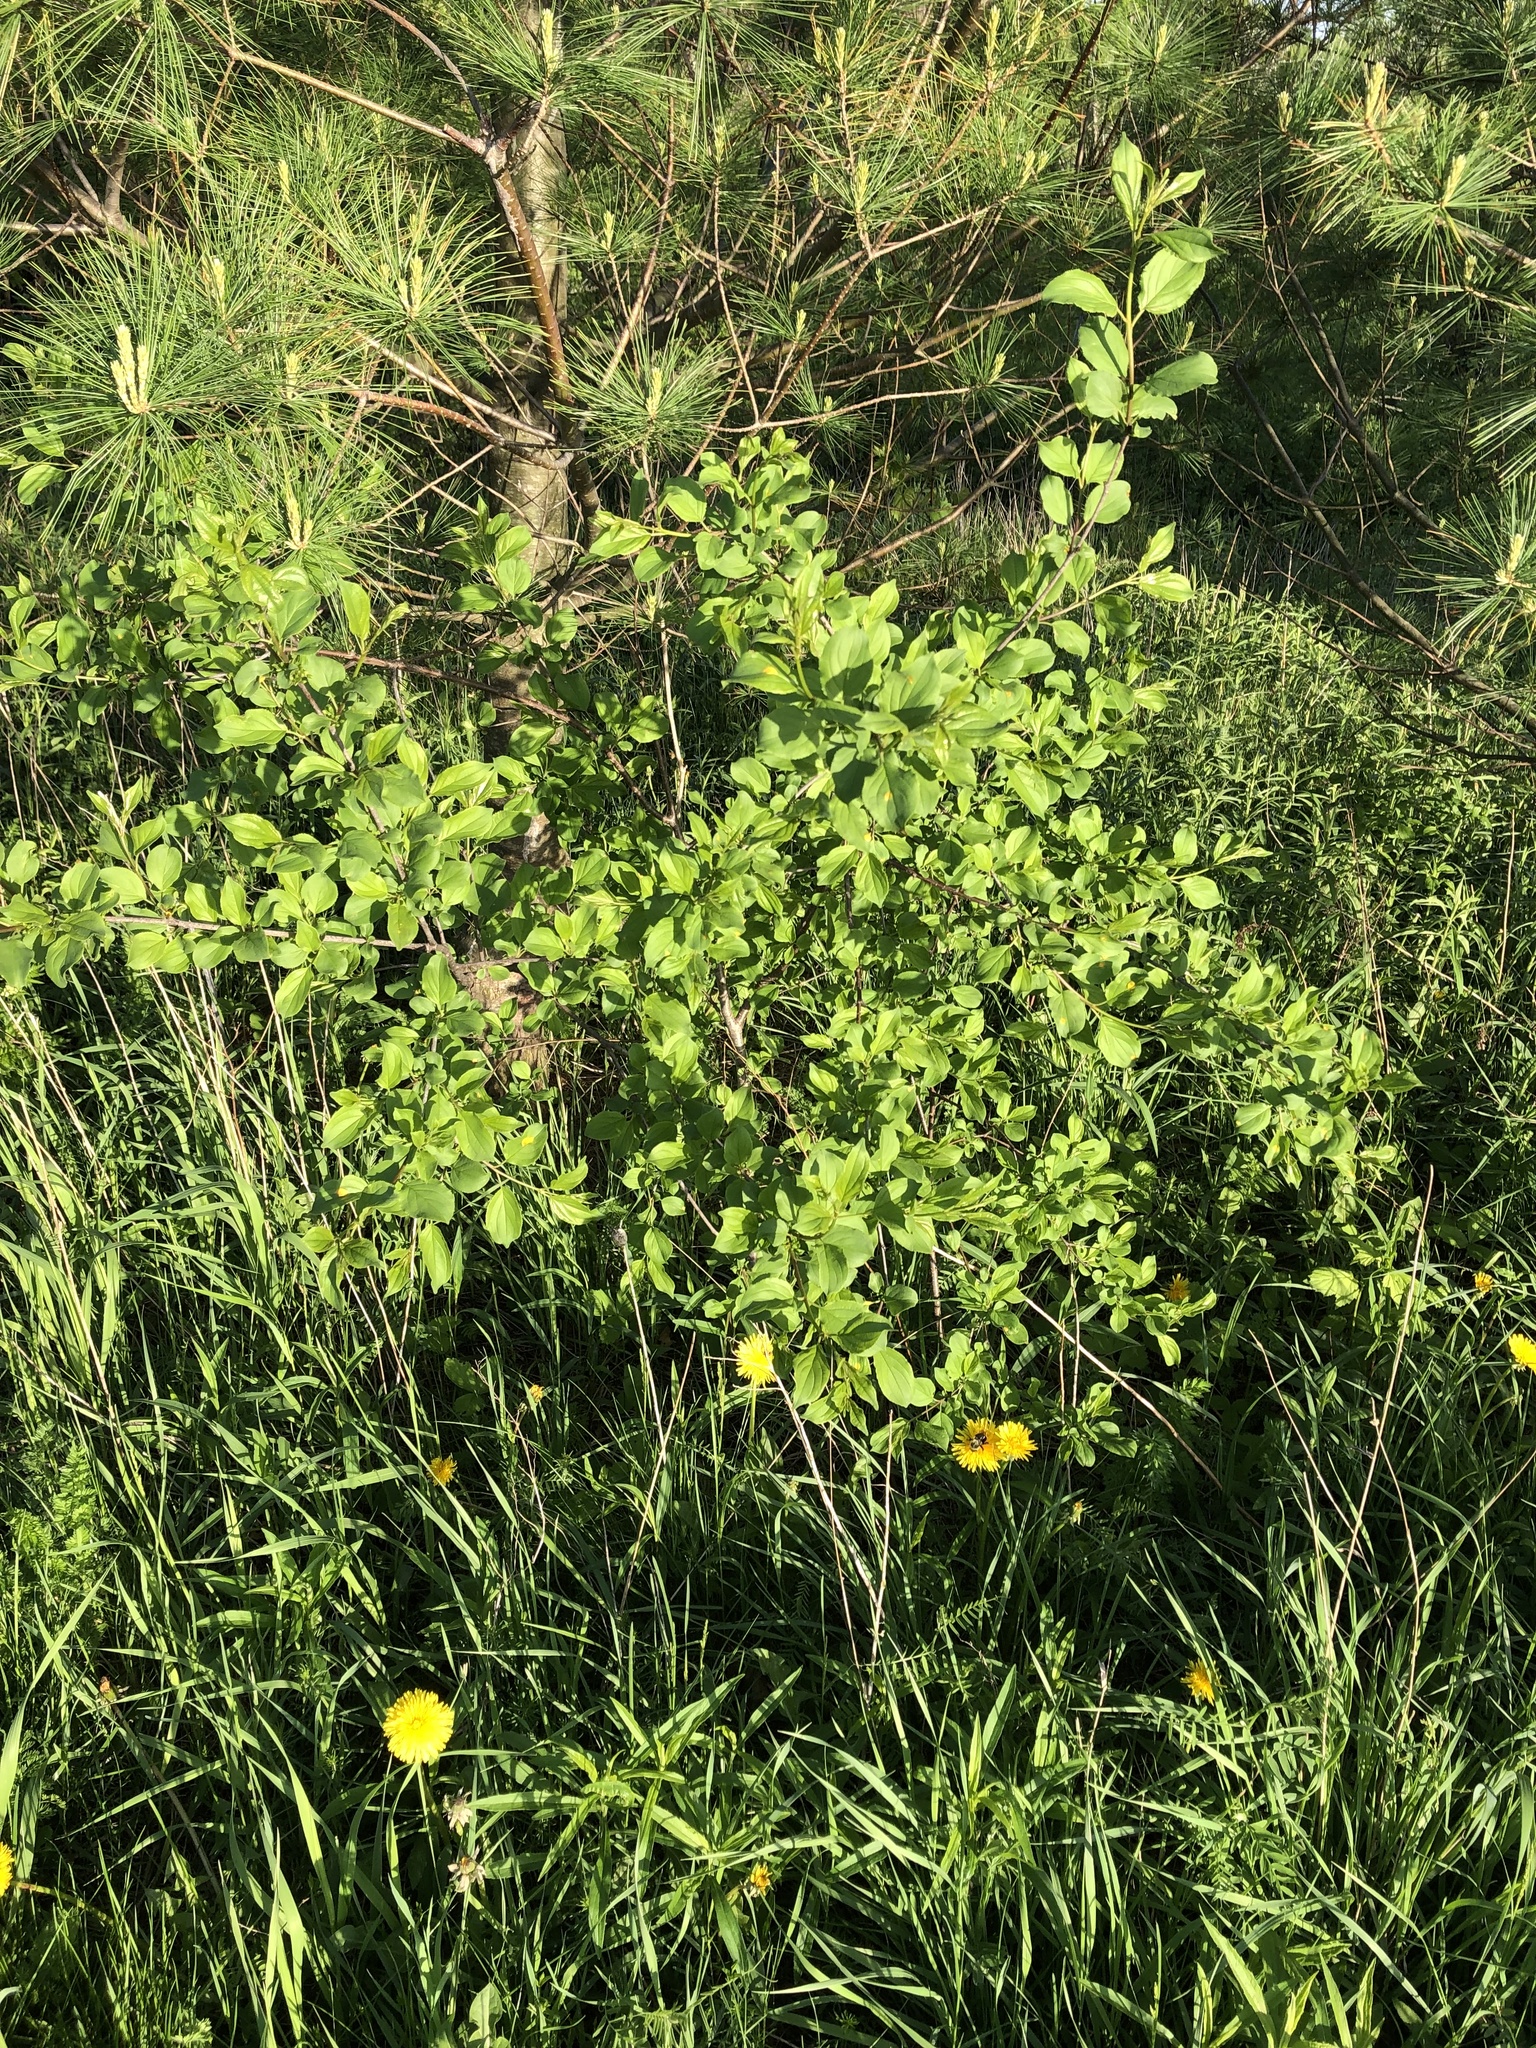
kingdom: Plantae
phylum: Tracheophyta
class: Magnoliopsida
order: Rosales
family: Rhamnaceae
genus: Rhamnus
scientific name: Rhamnus cathartica
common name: Common buckthorn
